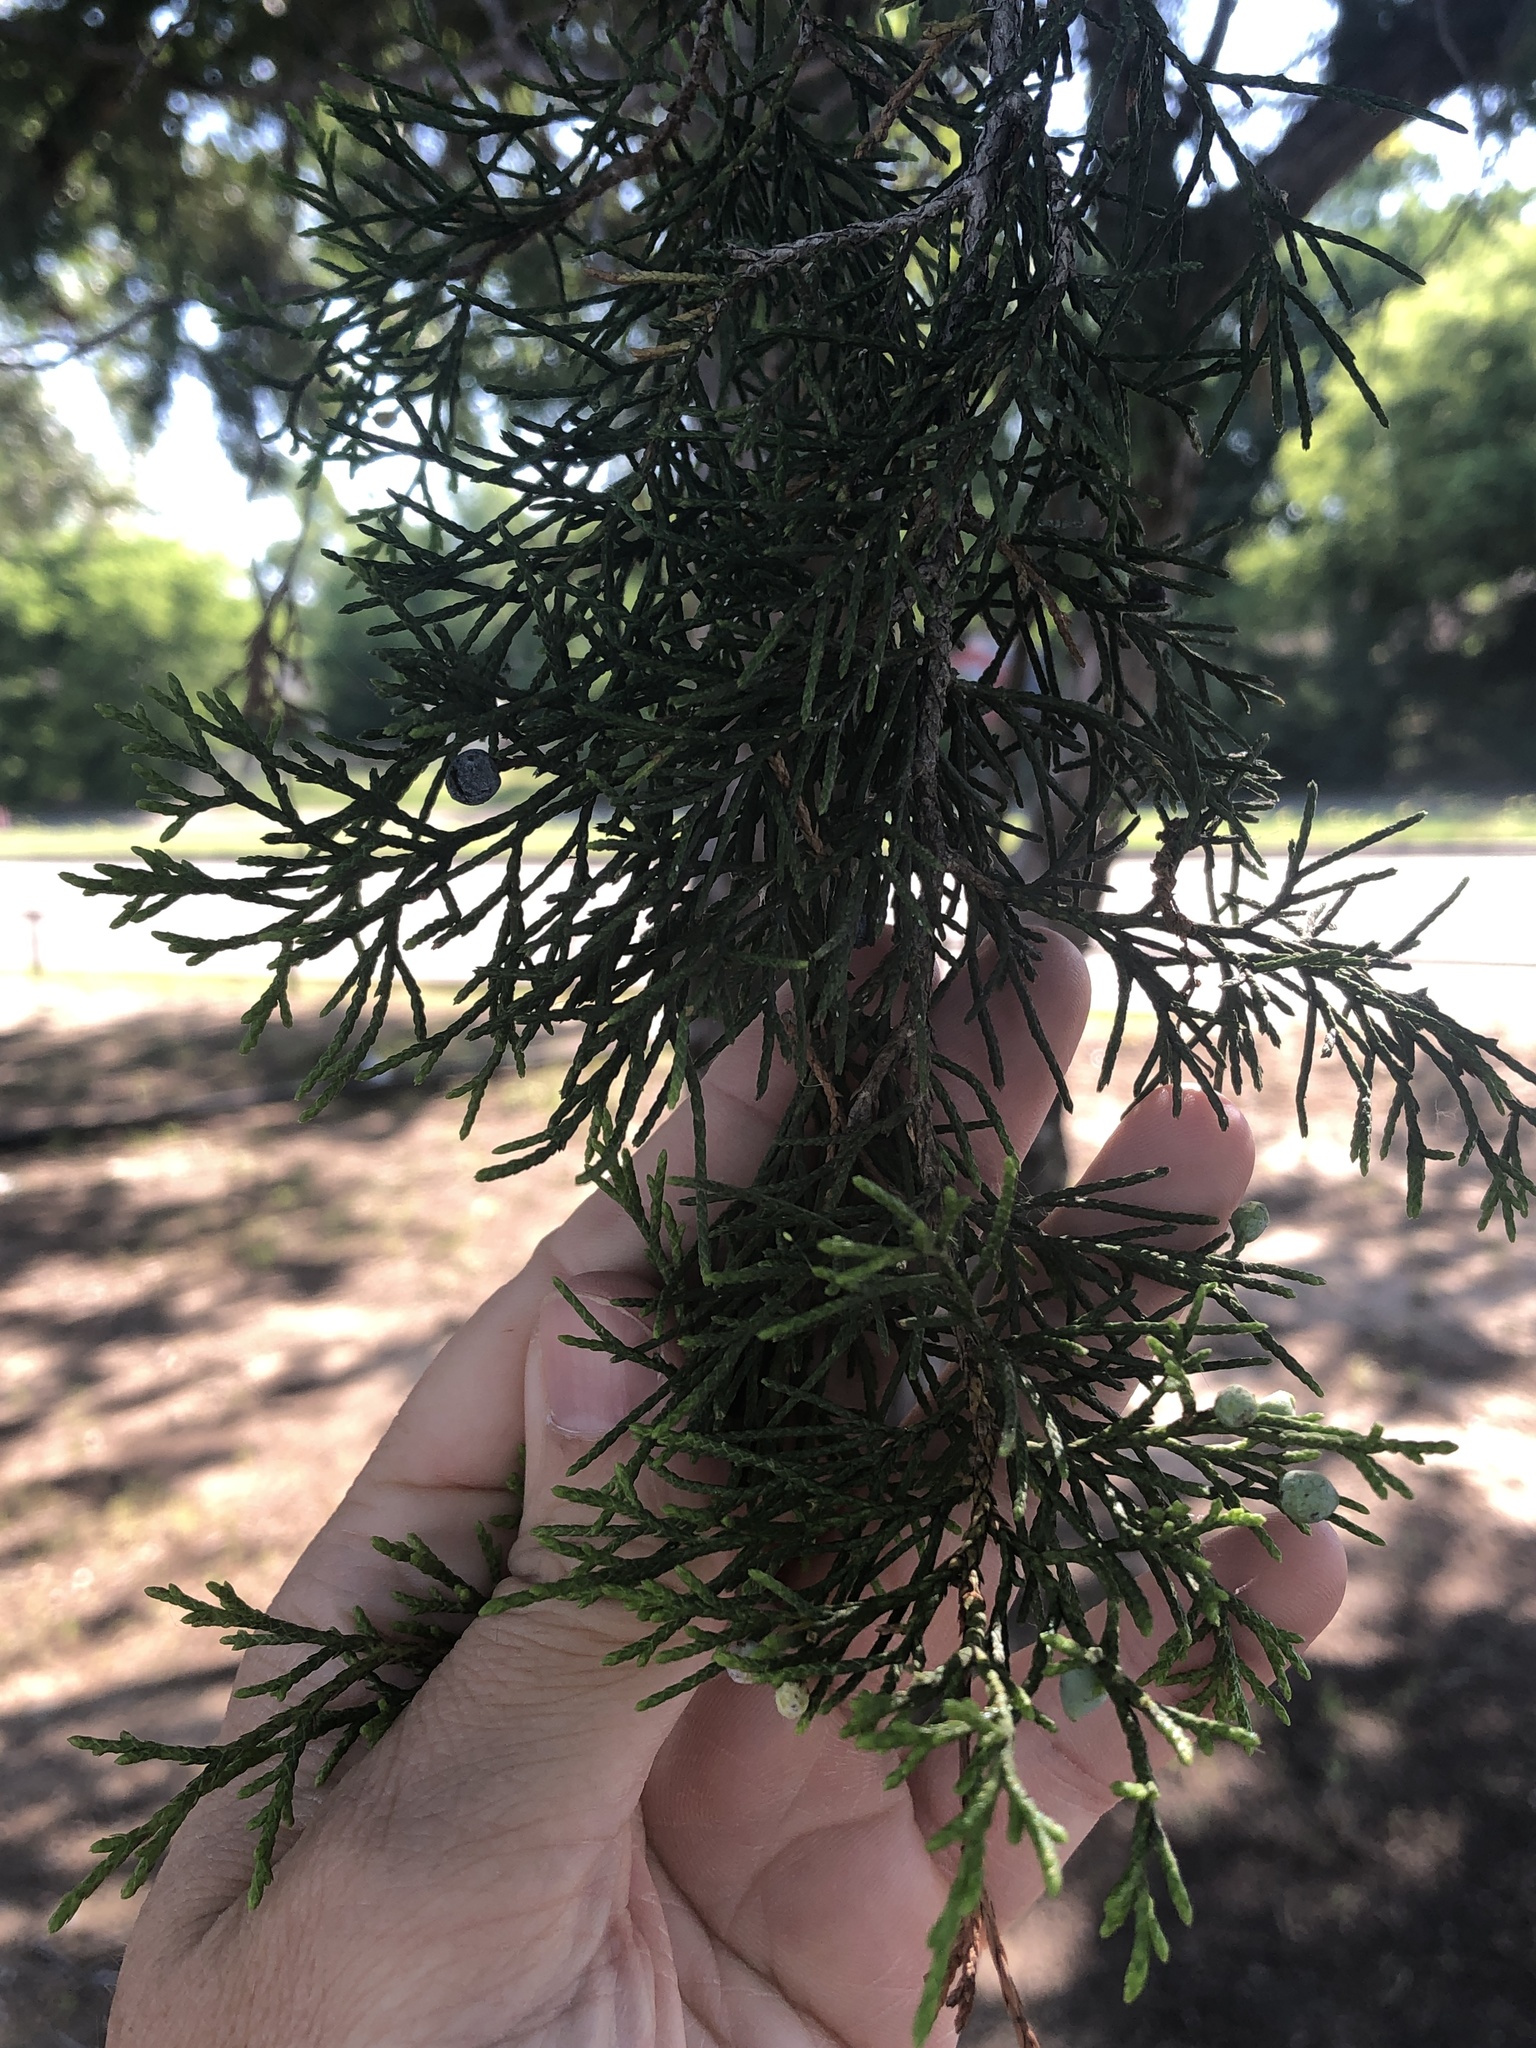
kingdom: Plantae
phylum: Tracheophyta
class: Pinopsida
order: Pinales
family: Cupressaceae
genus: Juniperus
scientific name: Juniperus virginiana
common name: Red juniper
